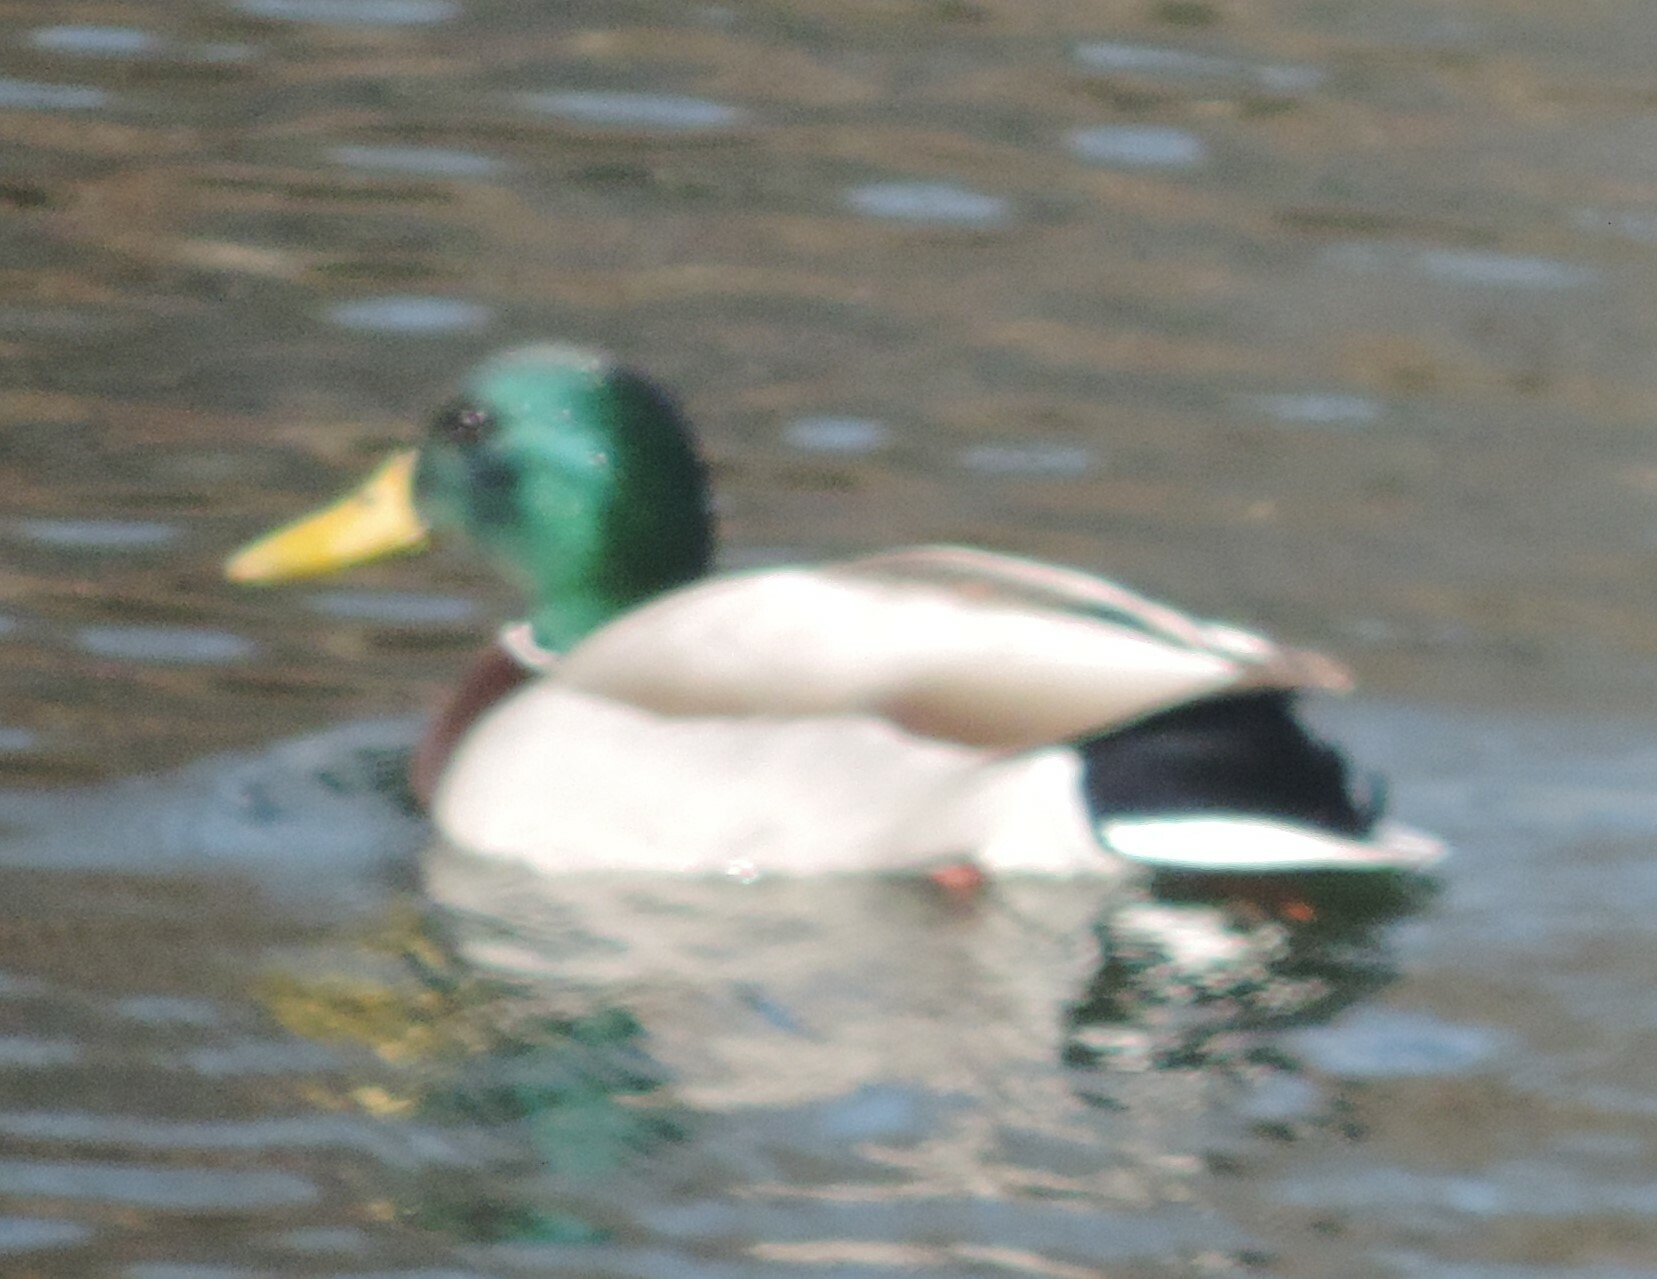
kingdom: Animalia
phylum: Chordata
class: Aves
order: Anseriformes
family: Anatidae
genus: Anas
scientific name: Anas platyrhynchos
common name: Mallard
